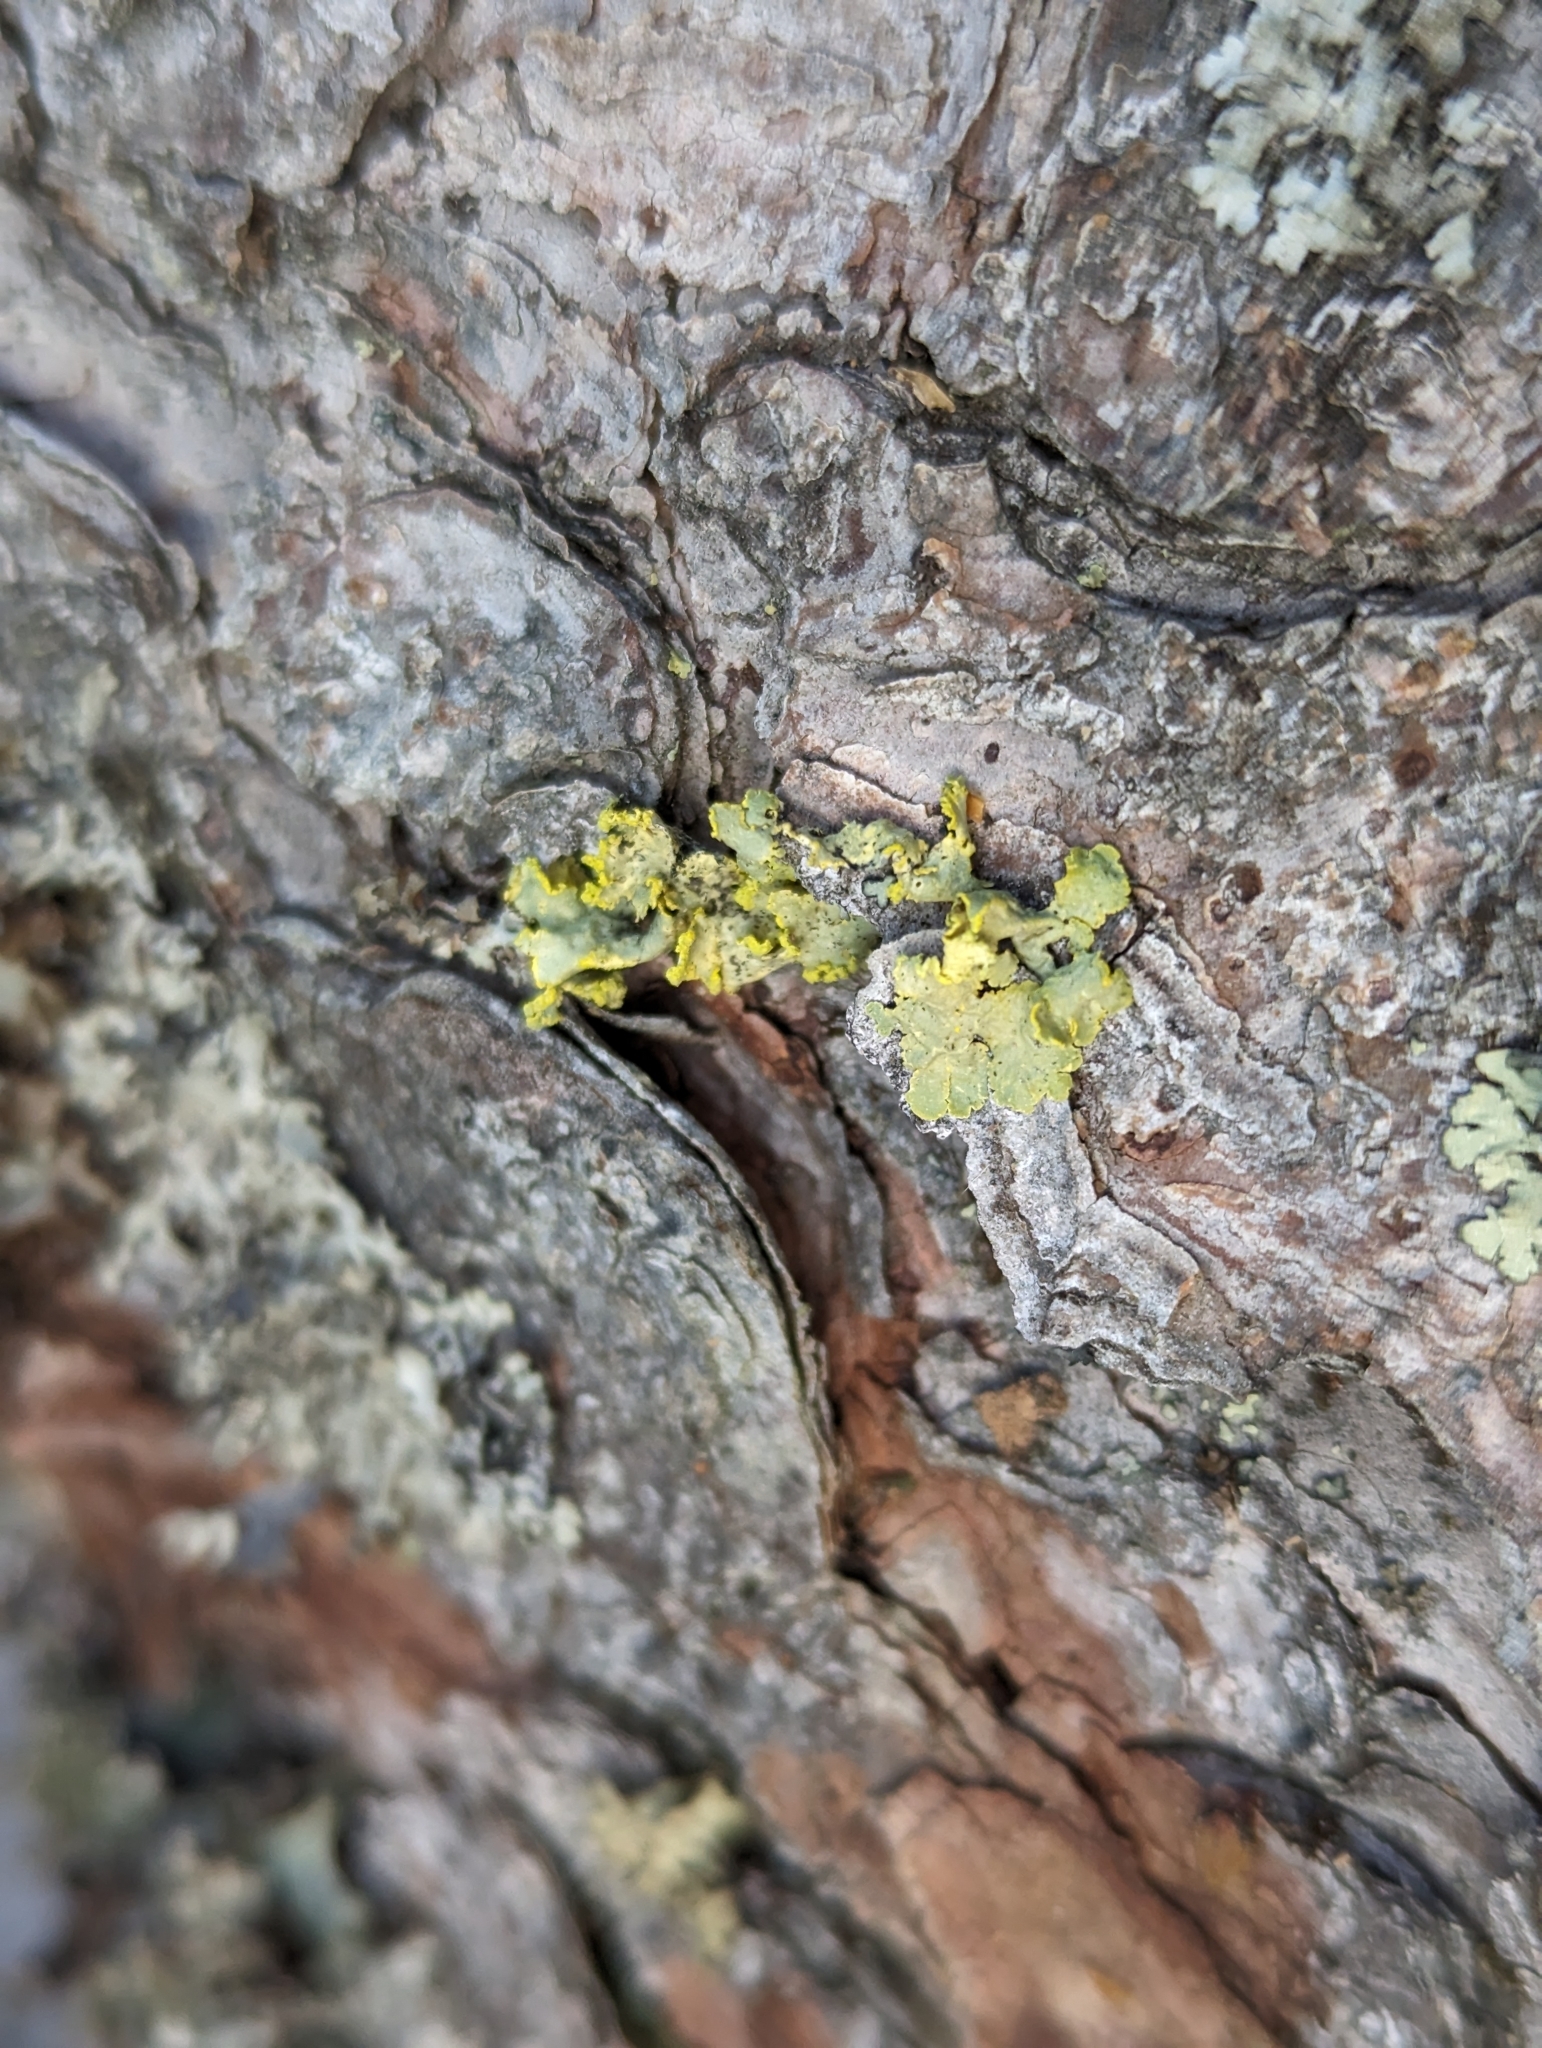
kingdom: Fungi
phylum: Ascomycota
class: Lecanoromycetes
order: Lecanorales
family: Parmeliaceae
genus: Vulpicida
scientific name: Vulpicida pinastri
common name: Powdered sunshine lichen
